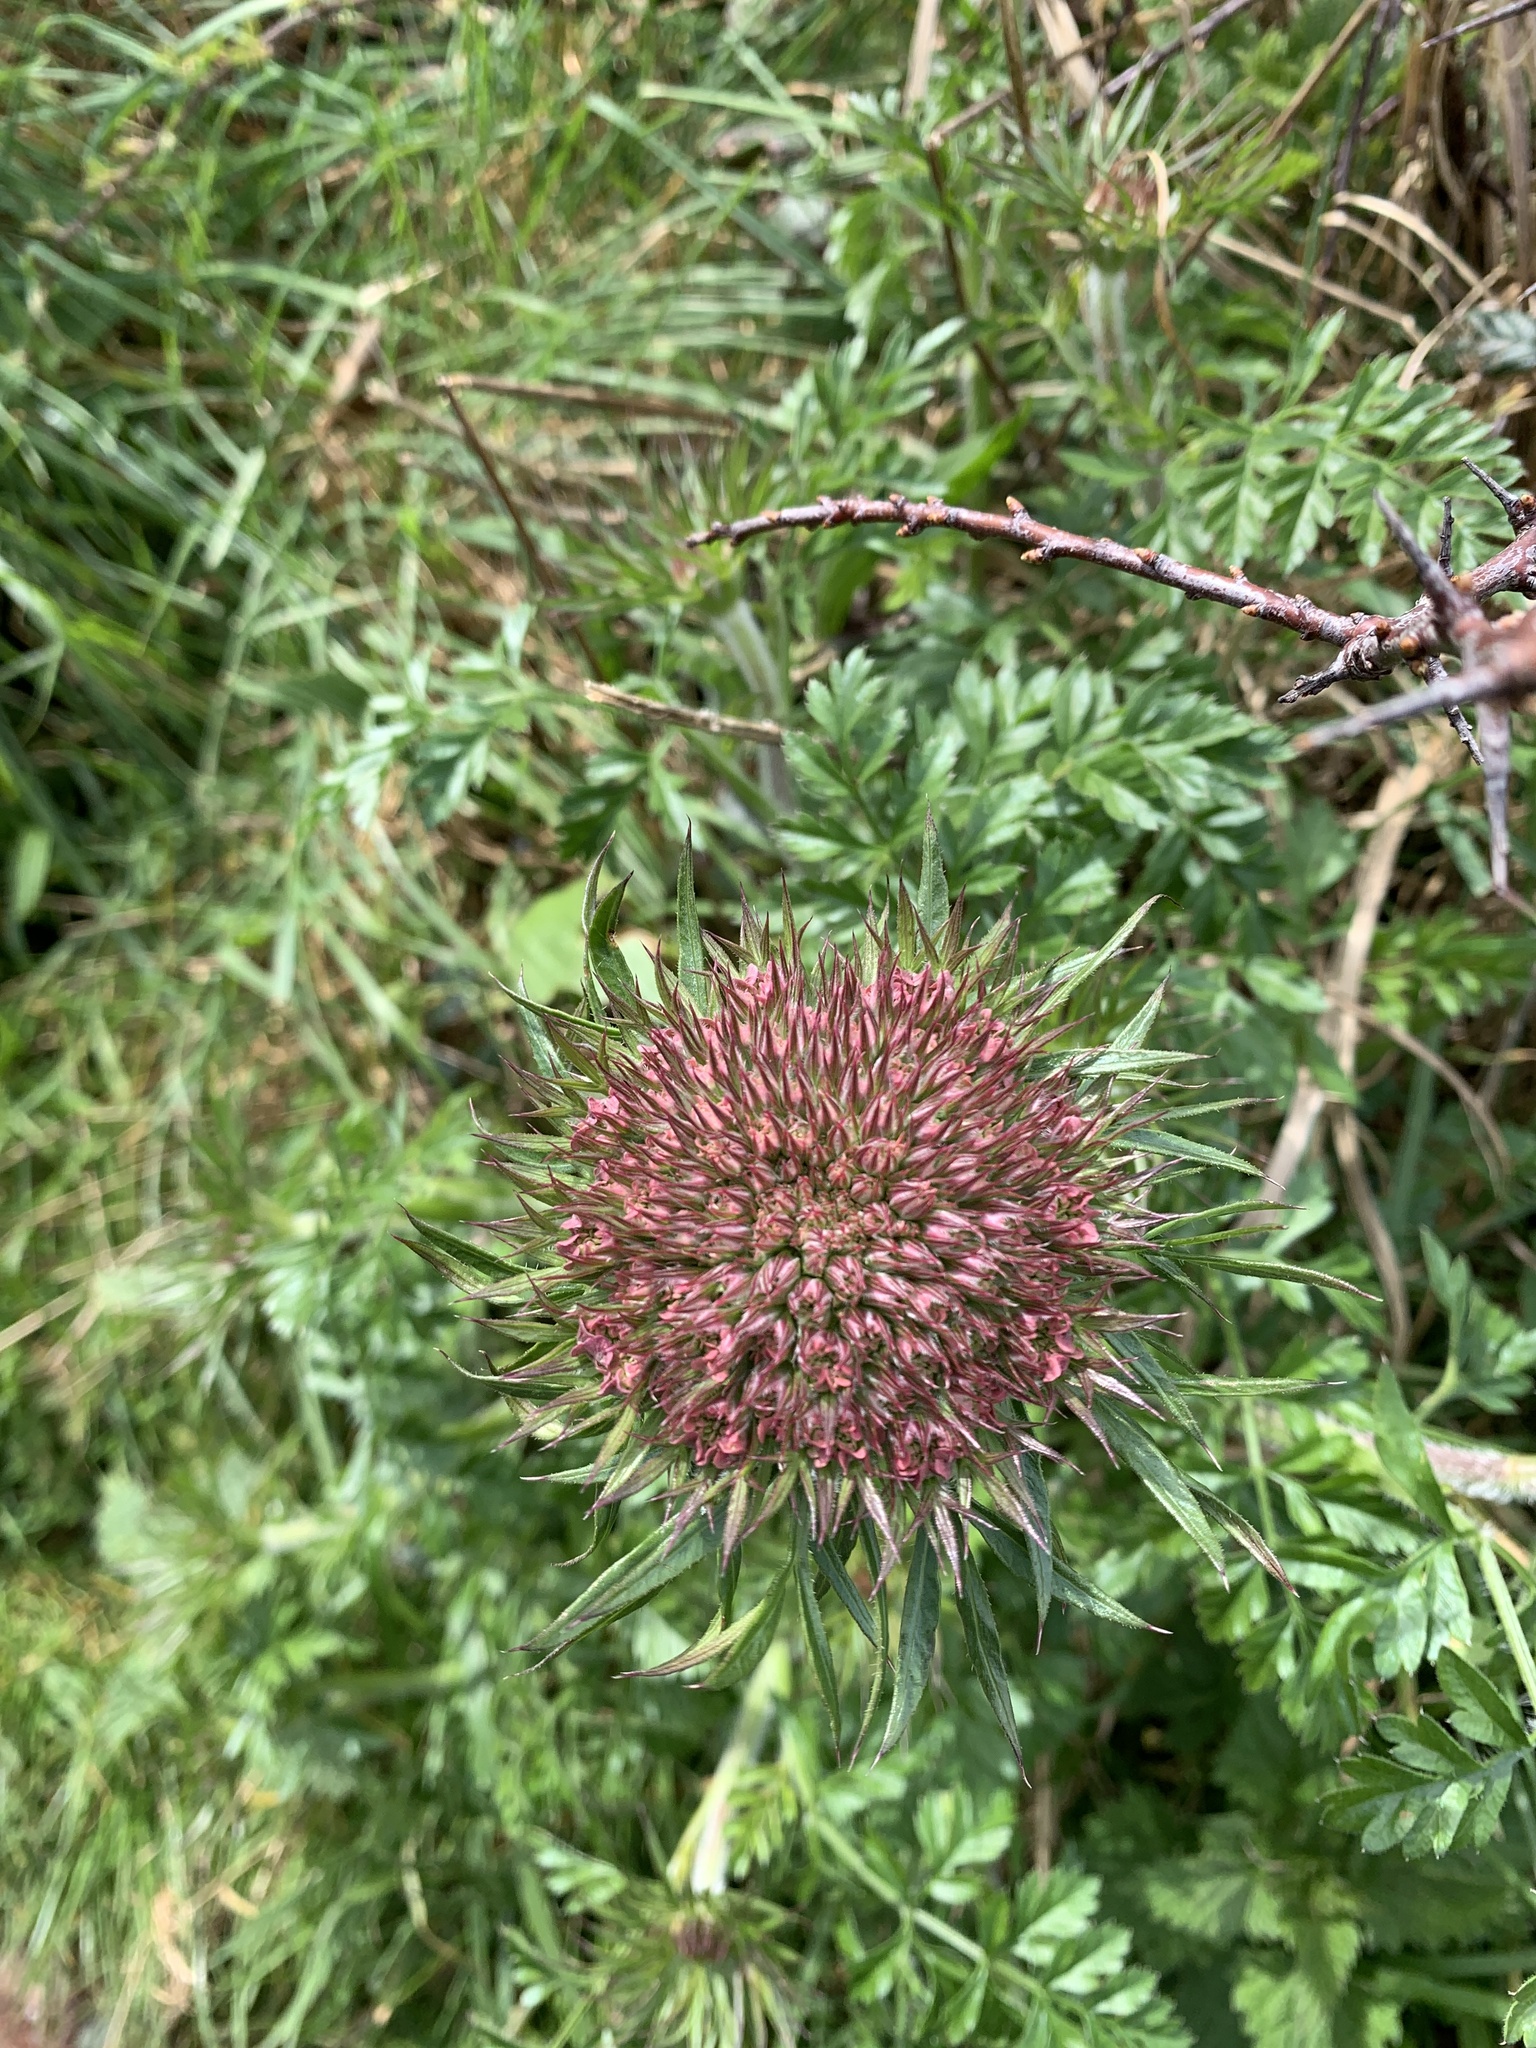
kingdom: Plantae
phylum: Tracheophyta
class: Magnoliopsida
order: Apiales
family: Apiaceae
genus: Daucus
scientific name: Daucus carota
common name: Wild carrot
